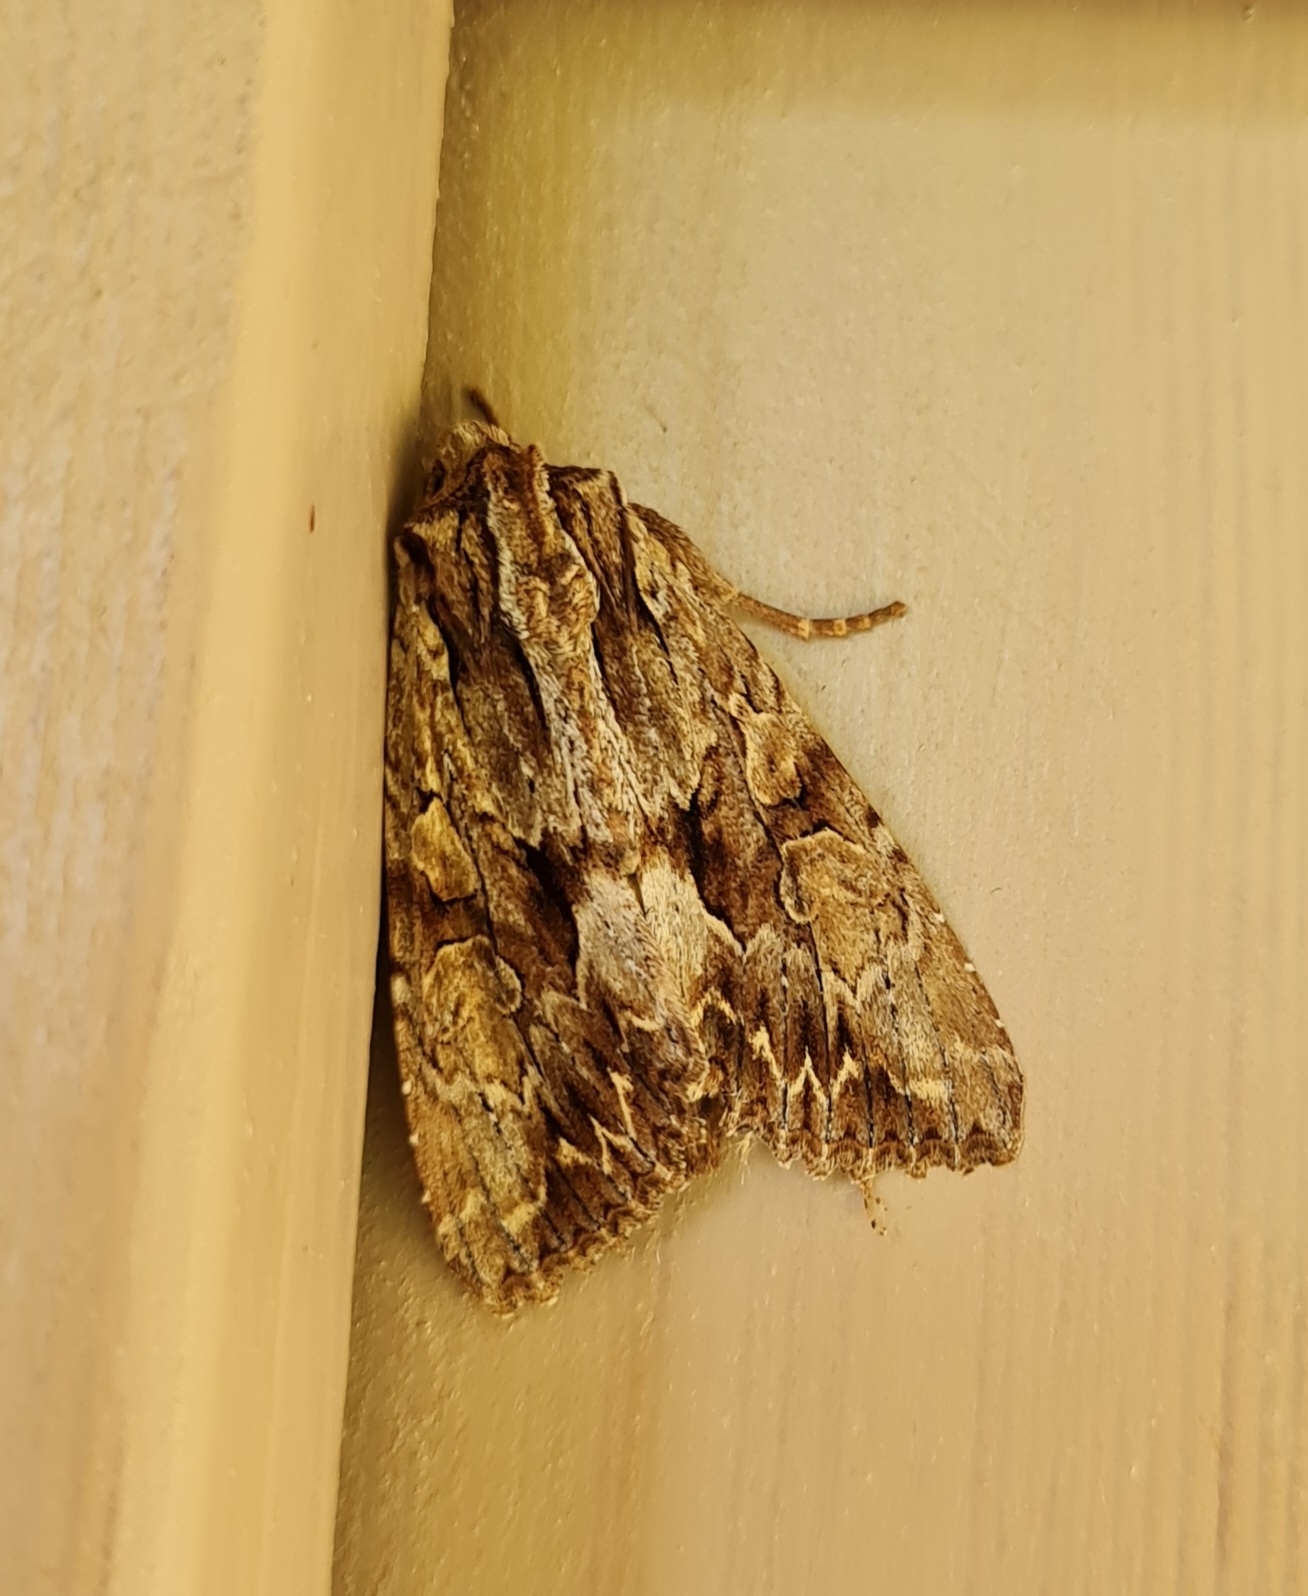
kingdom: Animalia
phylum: Arthropoda
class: Insecta
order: Lepidoptera
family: Noctuidae
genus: Apamea
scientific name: Apamea monoglypha
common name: Dark arches
